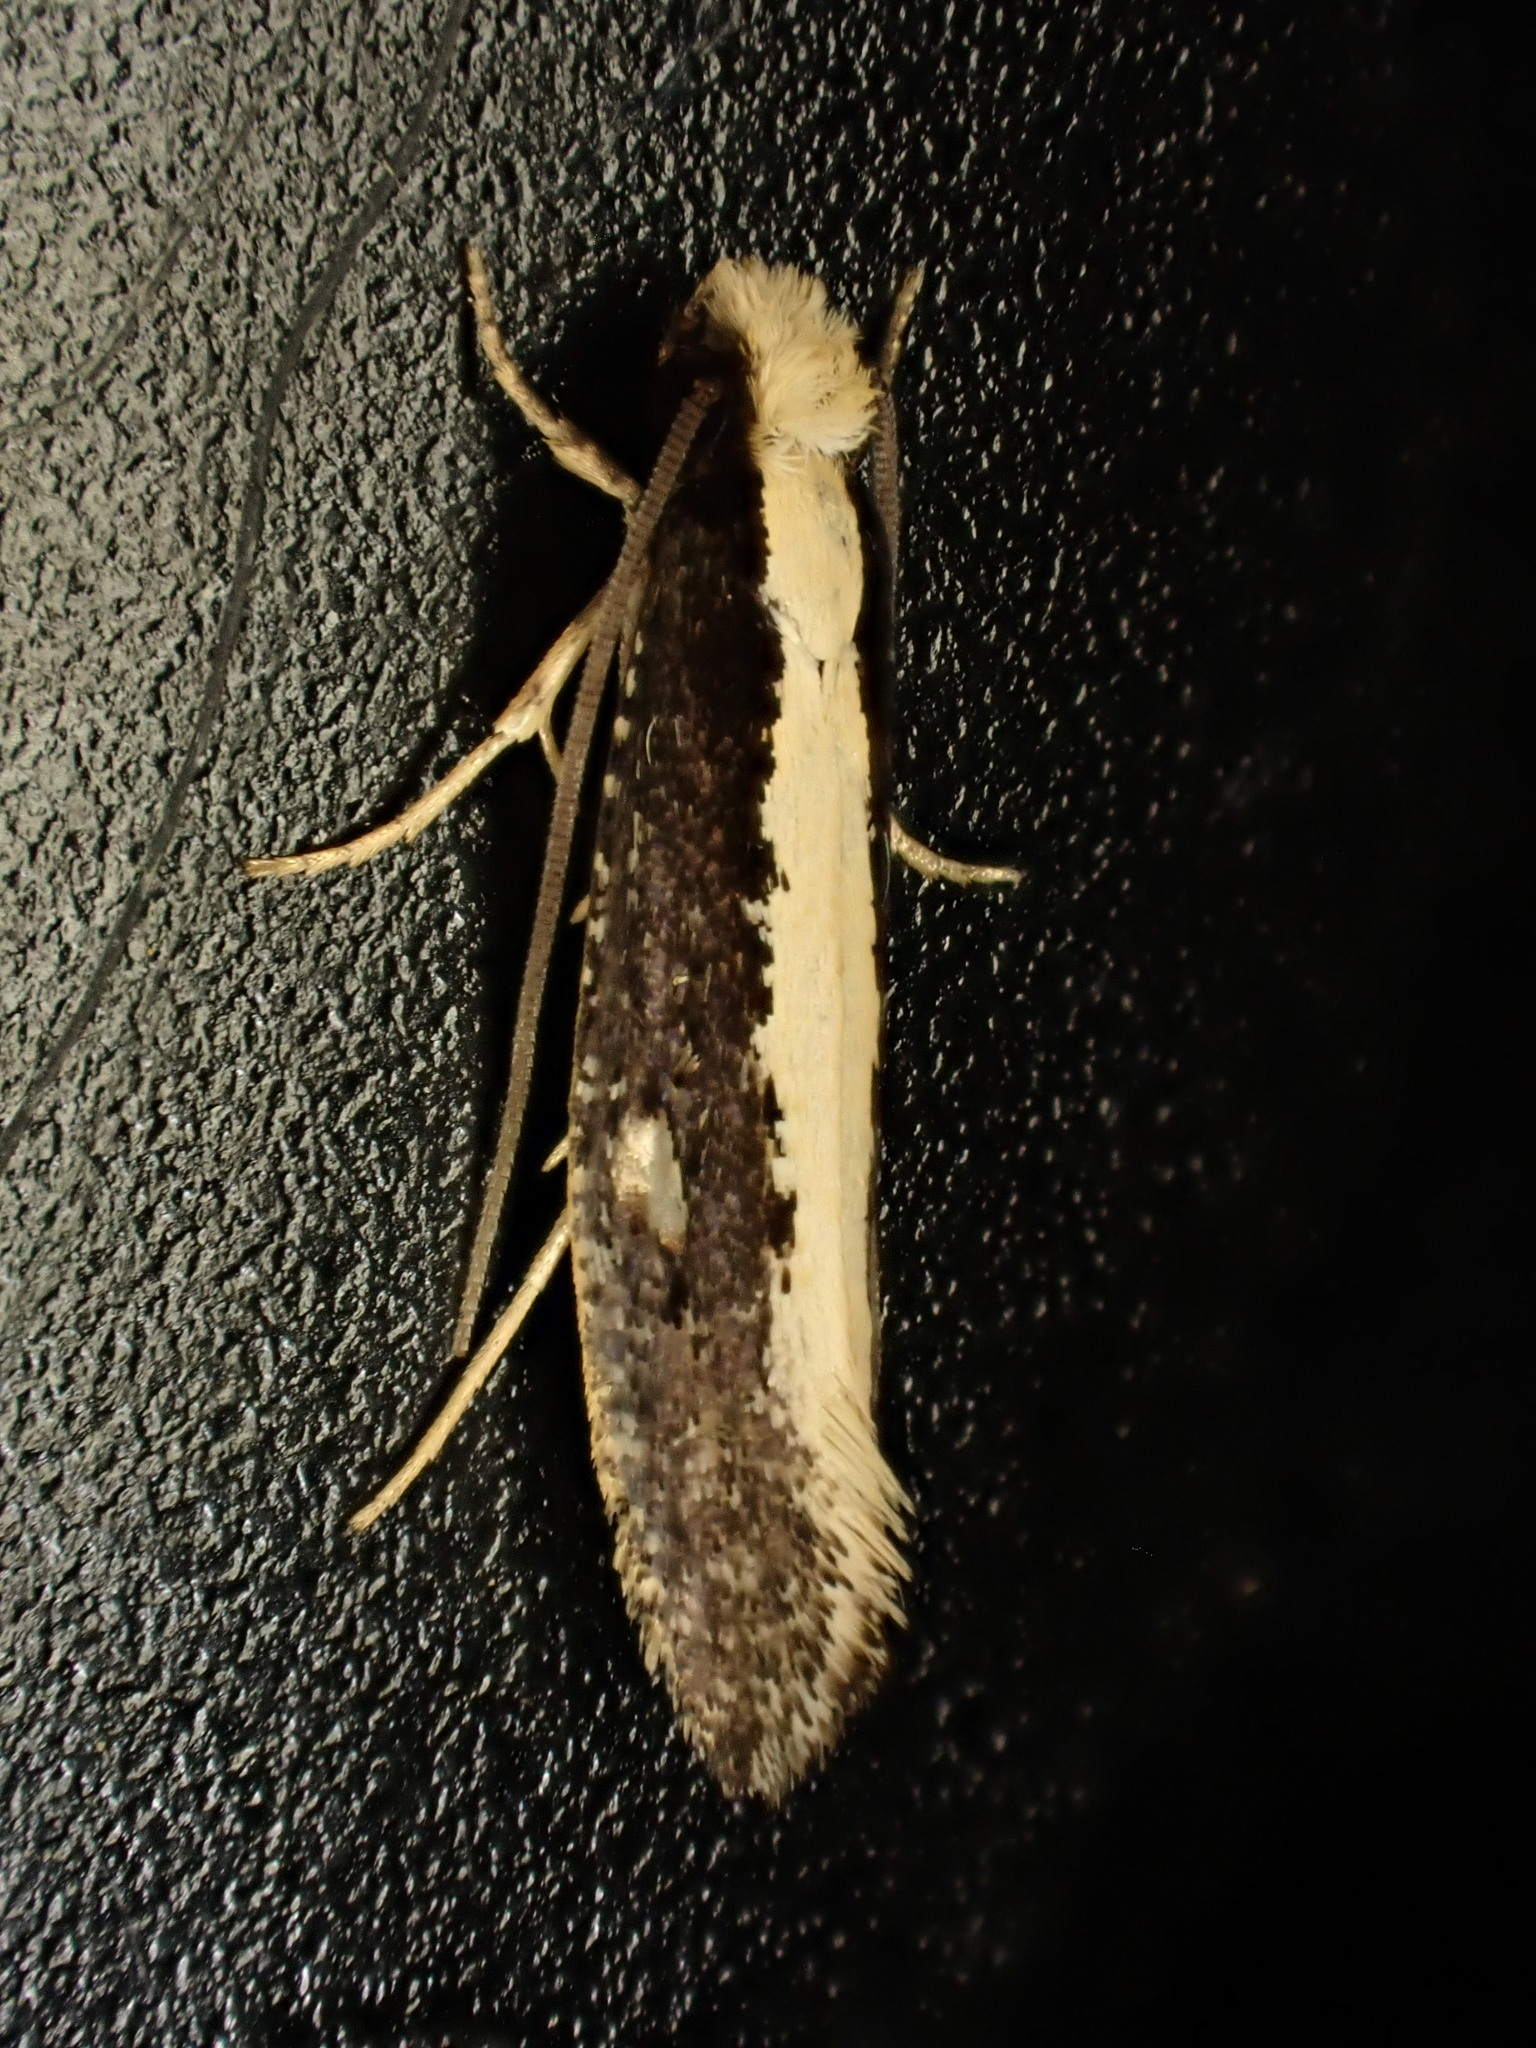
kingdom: Animalia
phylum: Arthropoda
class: Insecta
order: Lepidoptera
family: Tineidae
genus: Monopis
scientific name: Monopis ethelella
